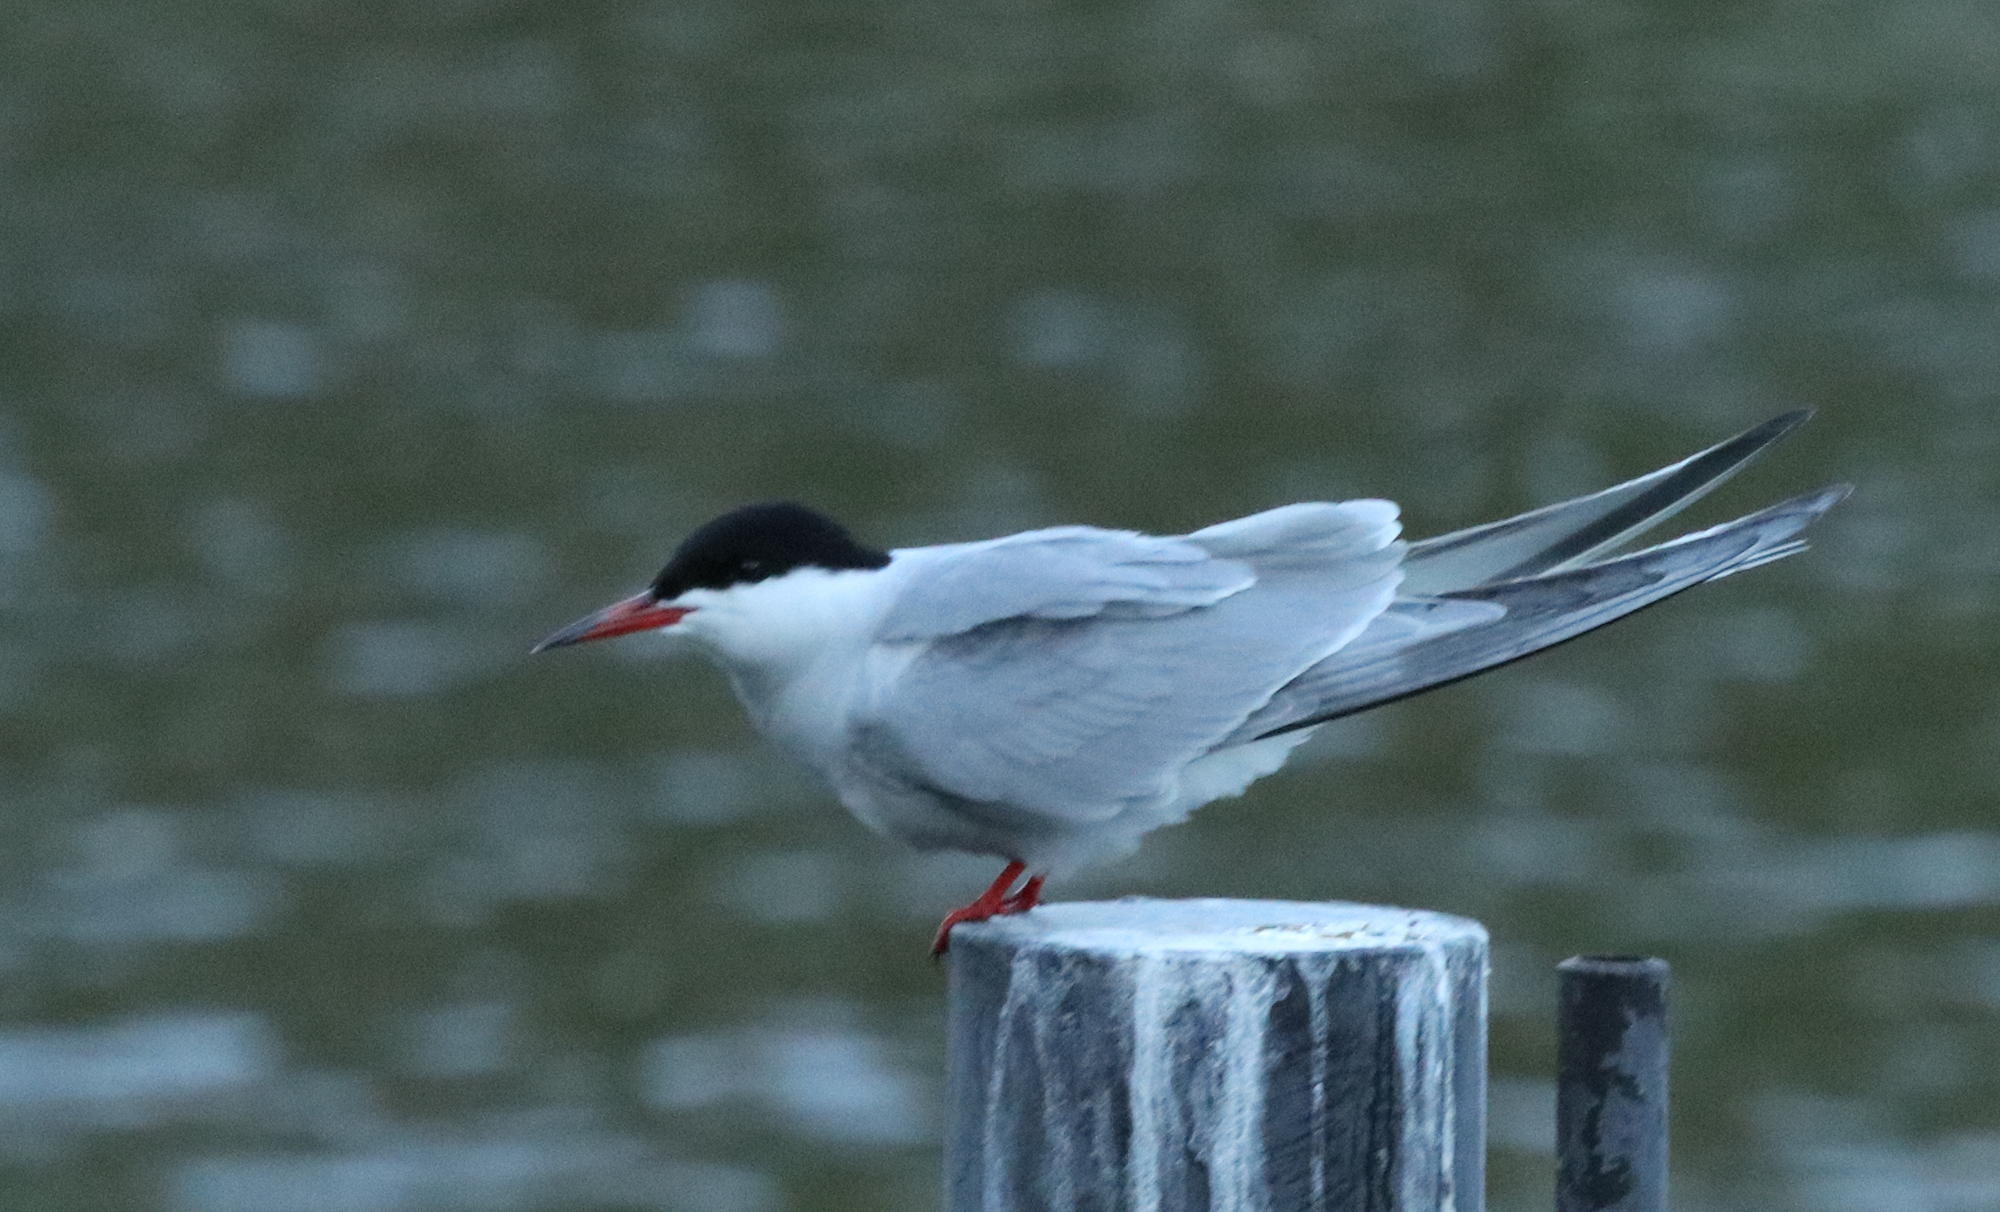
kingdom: Animalia
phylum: Chordata
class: Aves
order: Charadriiformes
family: Laridae
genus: Sterna
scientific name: Sterna hirundo
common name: Common tern
